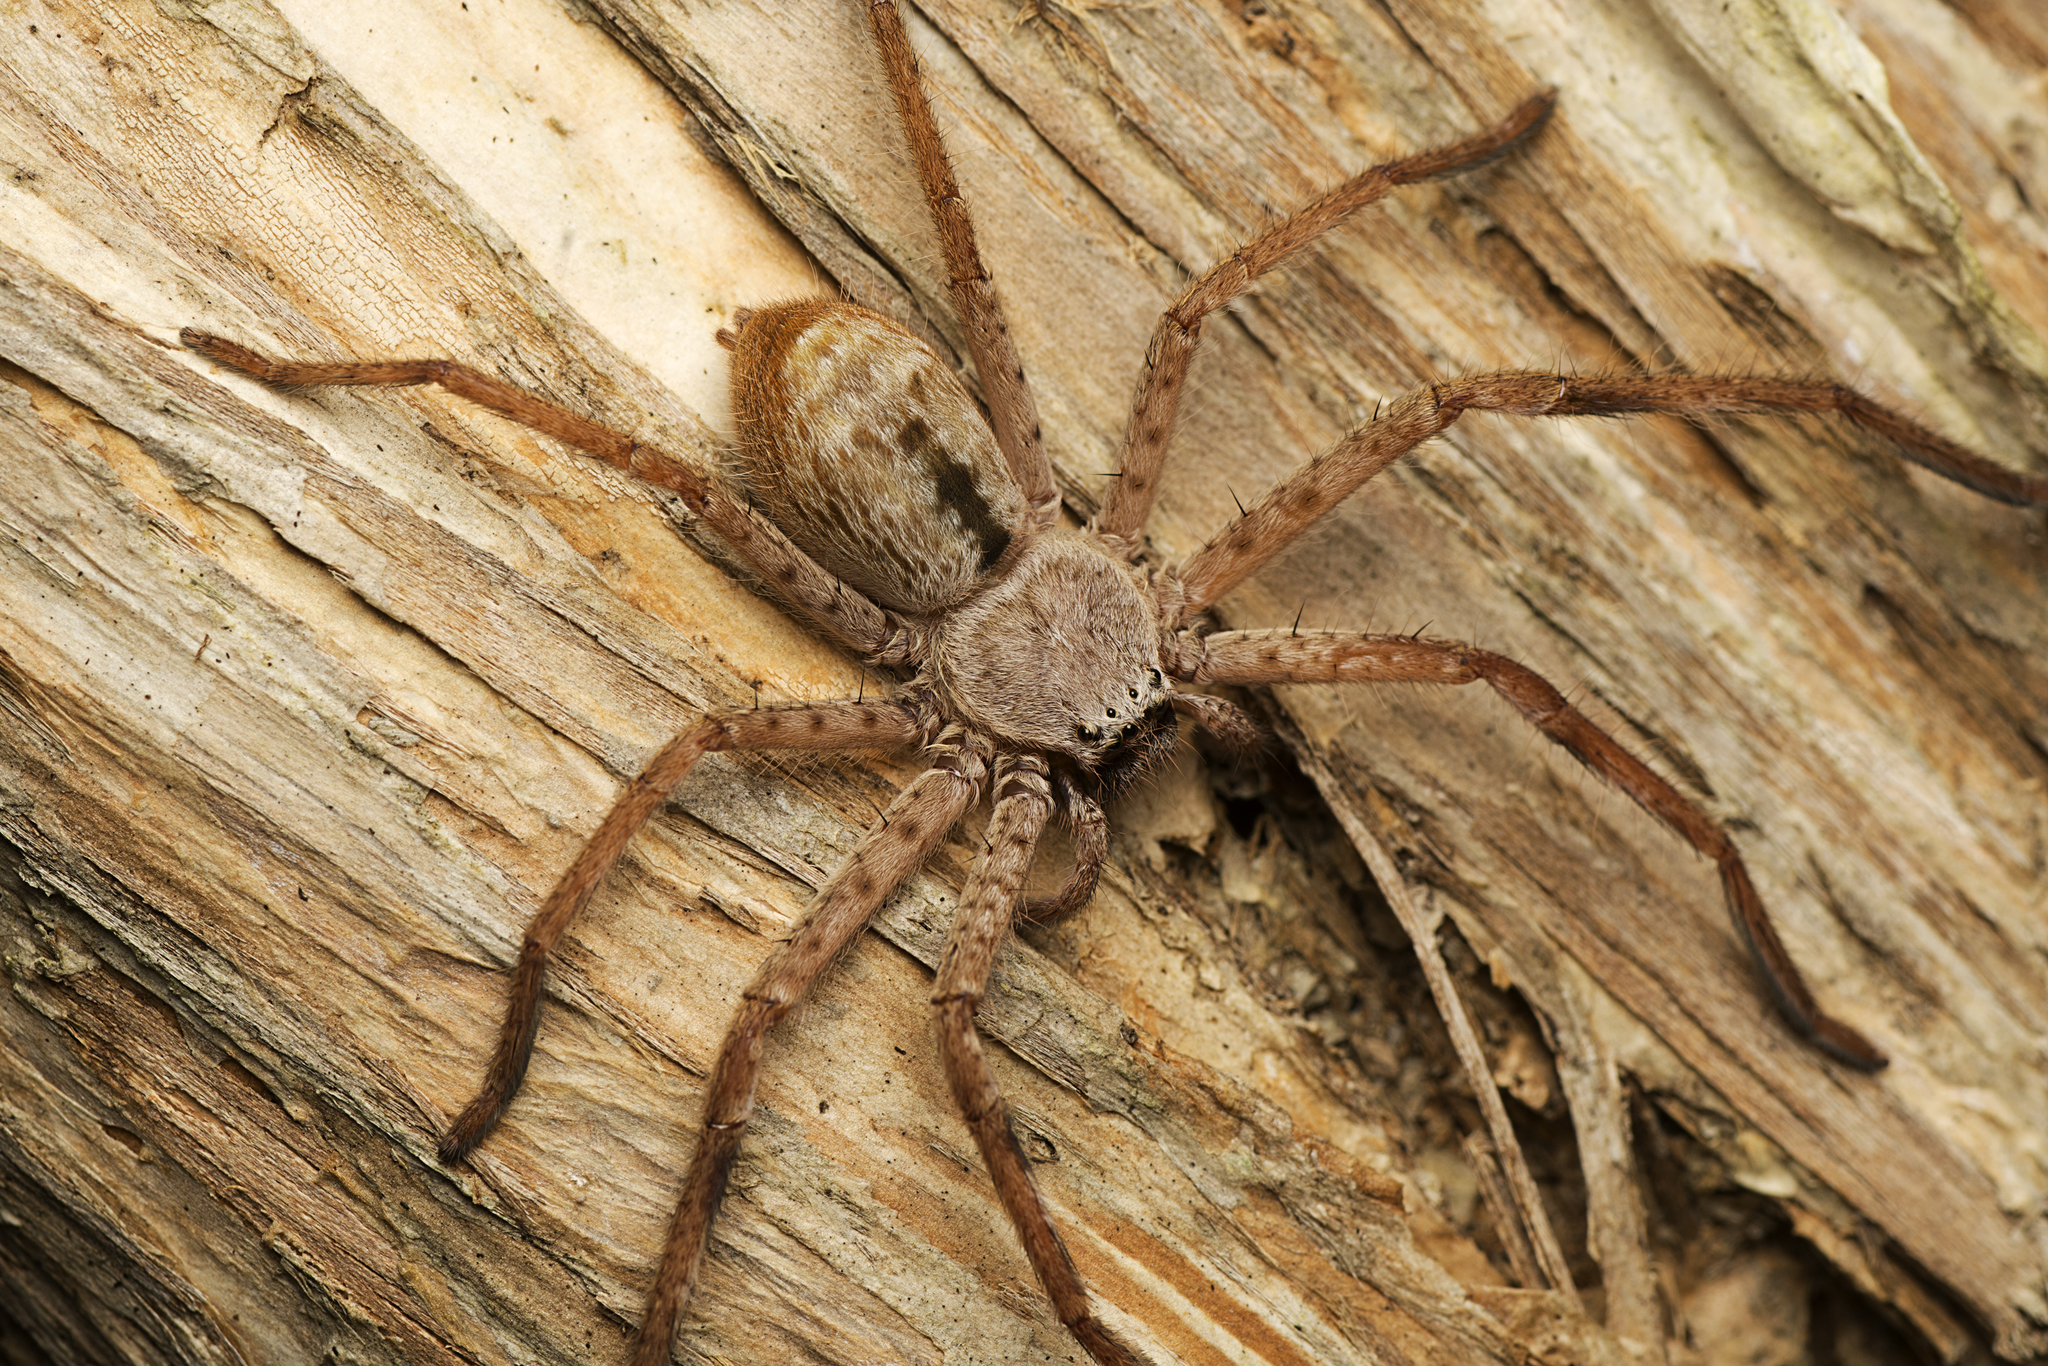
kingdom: Animalia
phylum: Arthropoda
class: Arachnida
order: Araneae
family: Sparassidae
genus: Holconia
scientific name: Holconia immanis
